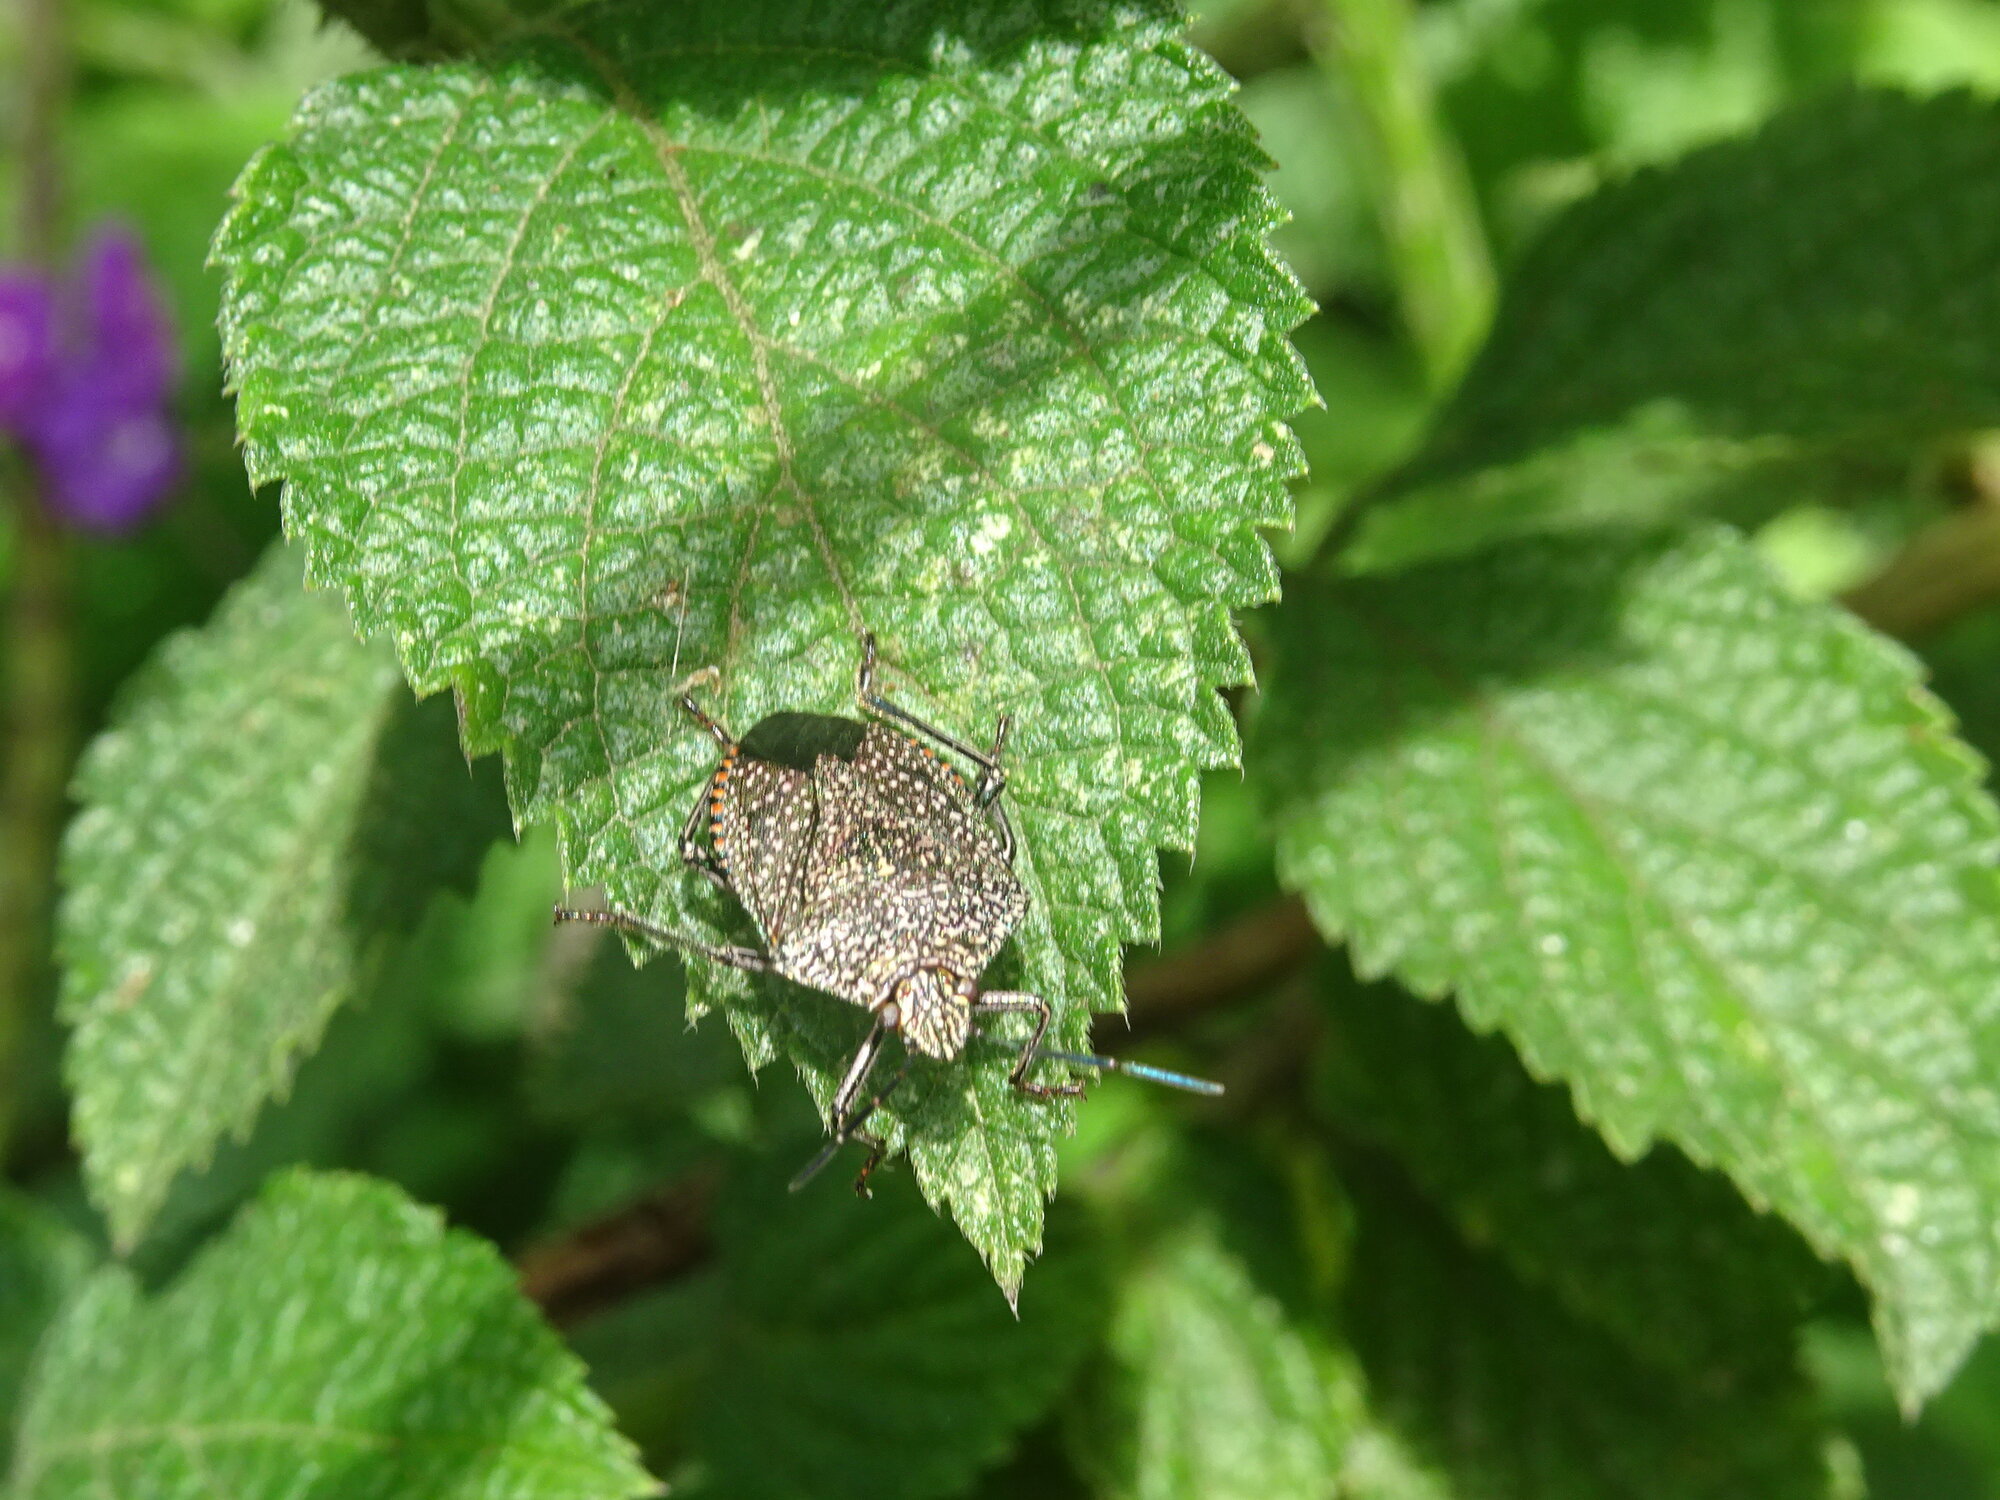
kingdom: Animalia
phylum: Arthropoda
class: Insecta
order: Hemiptera
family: Pentatomidae
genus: Pellaea
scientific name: Pellaea stictica
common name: Stink bug
